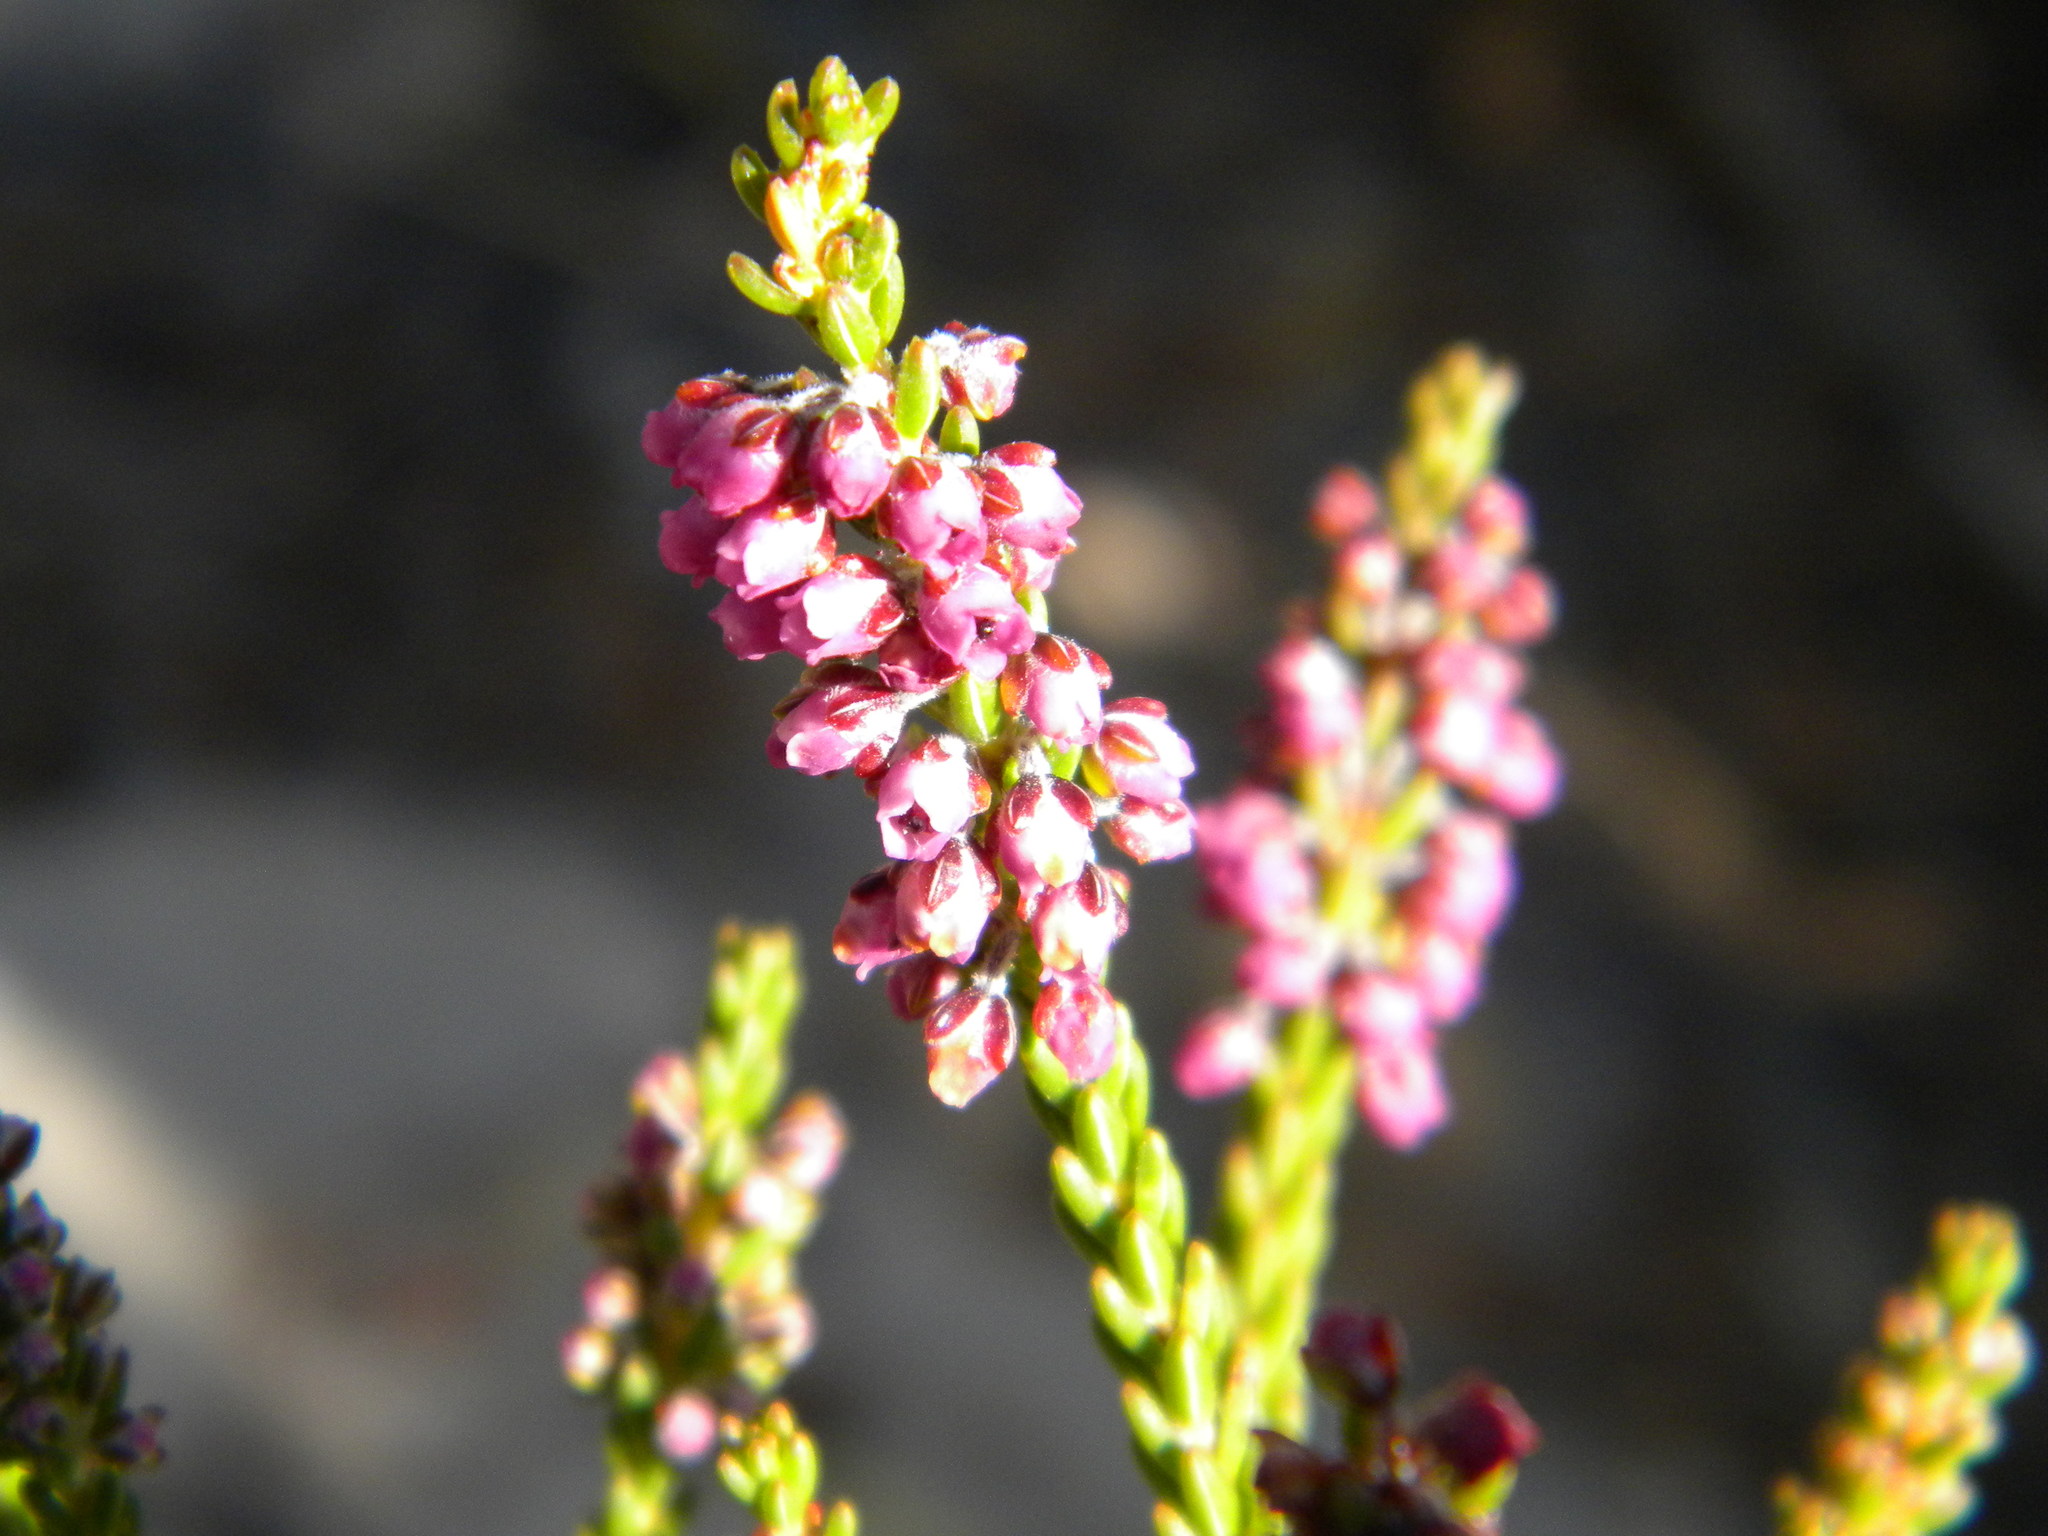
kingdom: Plantae
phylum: Tracheophyta
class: Magnoliopsida
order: Ericales
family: Ericaceae
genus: Erica
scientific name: Erica pulchella
